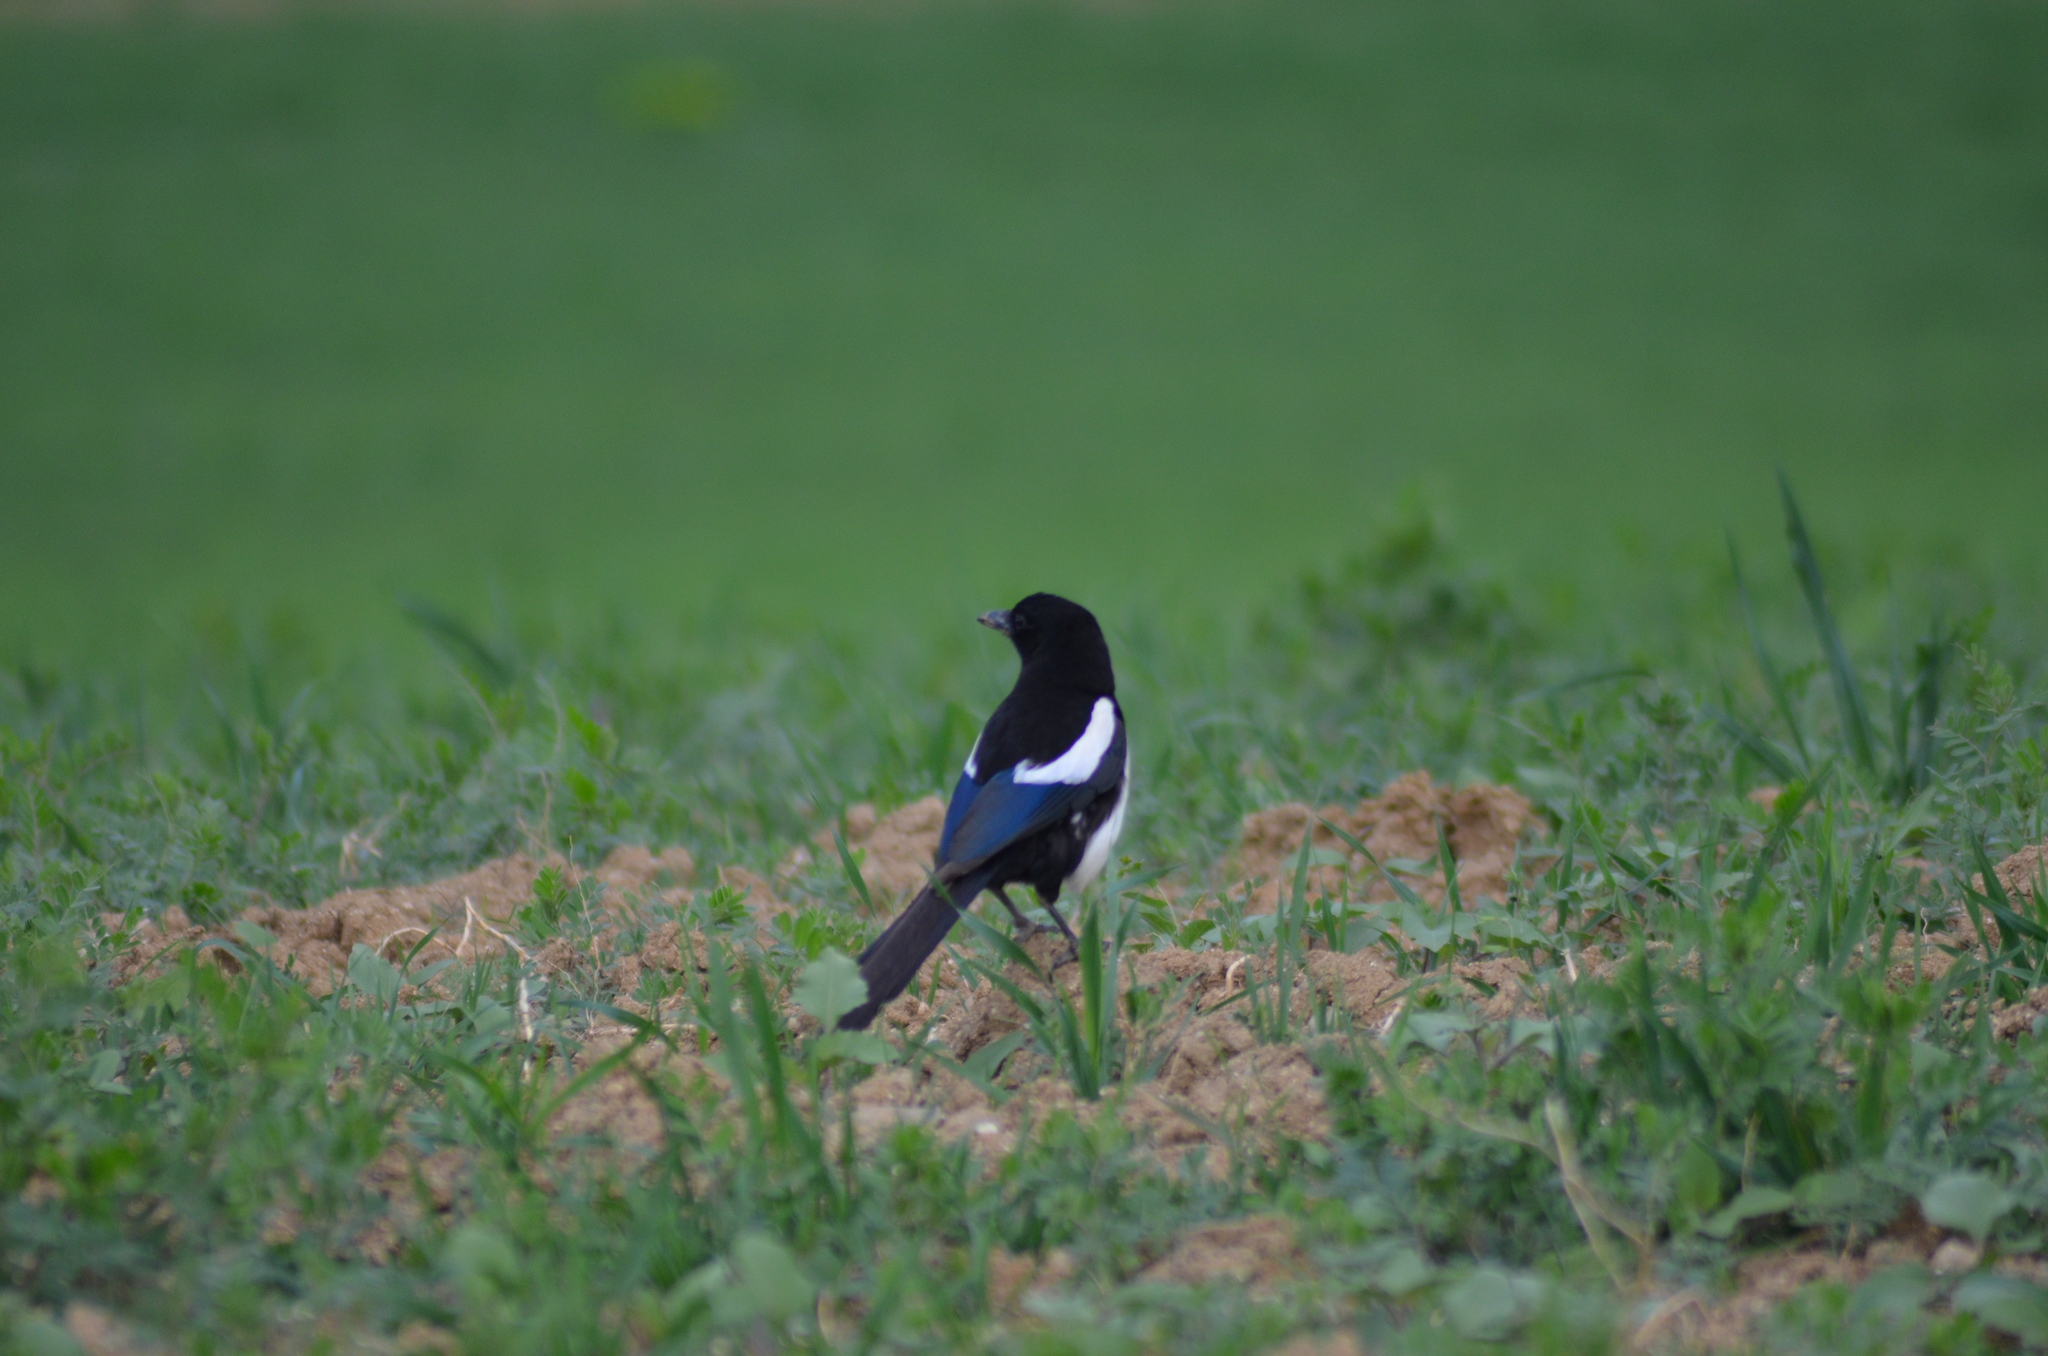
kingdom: Animalia
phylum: Chordata
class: Aves
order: Passeriformes
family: Corvidae
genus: Pica
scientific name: Pica pica
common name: Eurasian magpie
